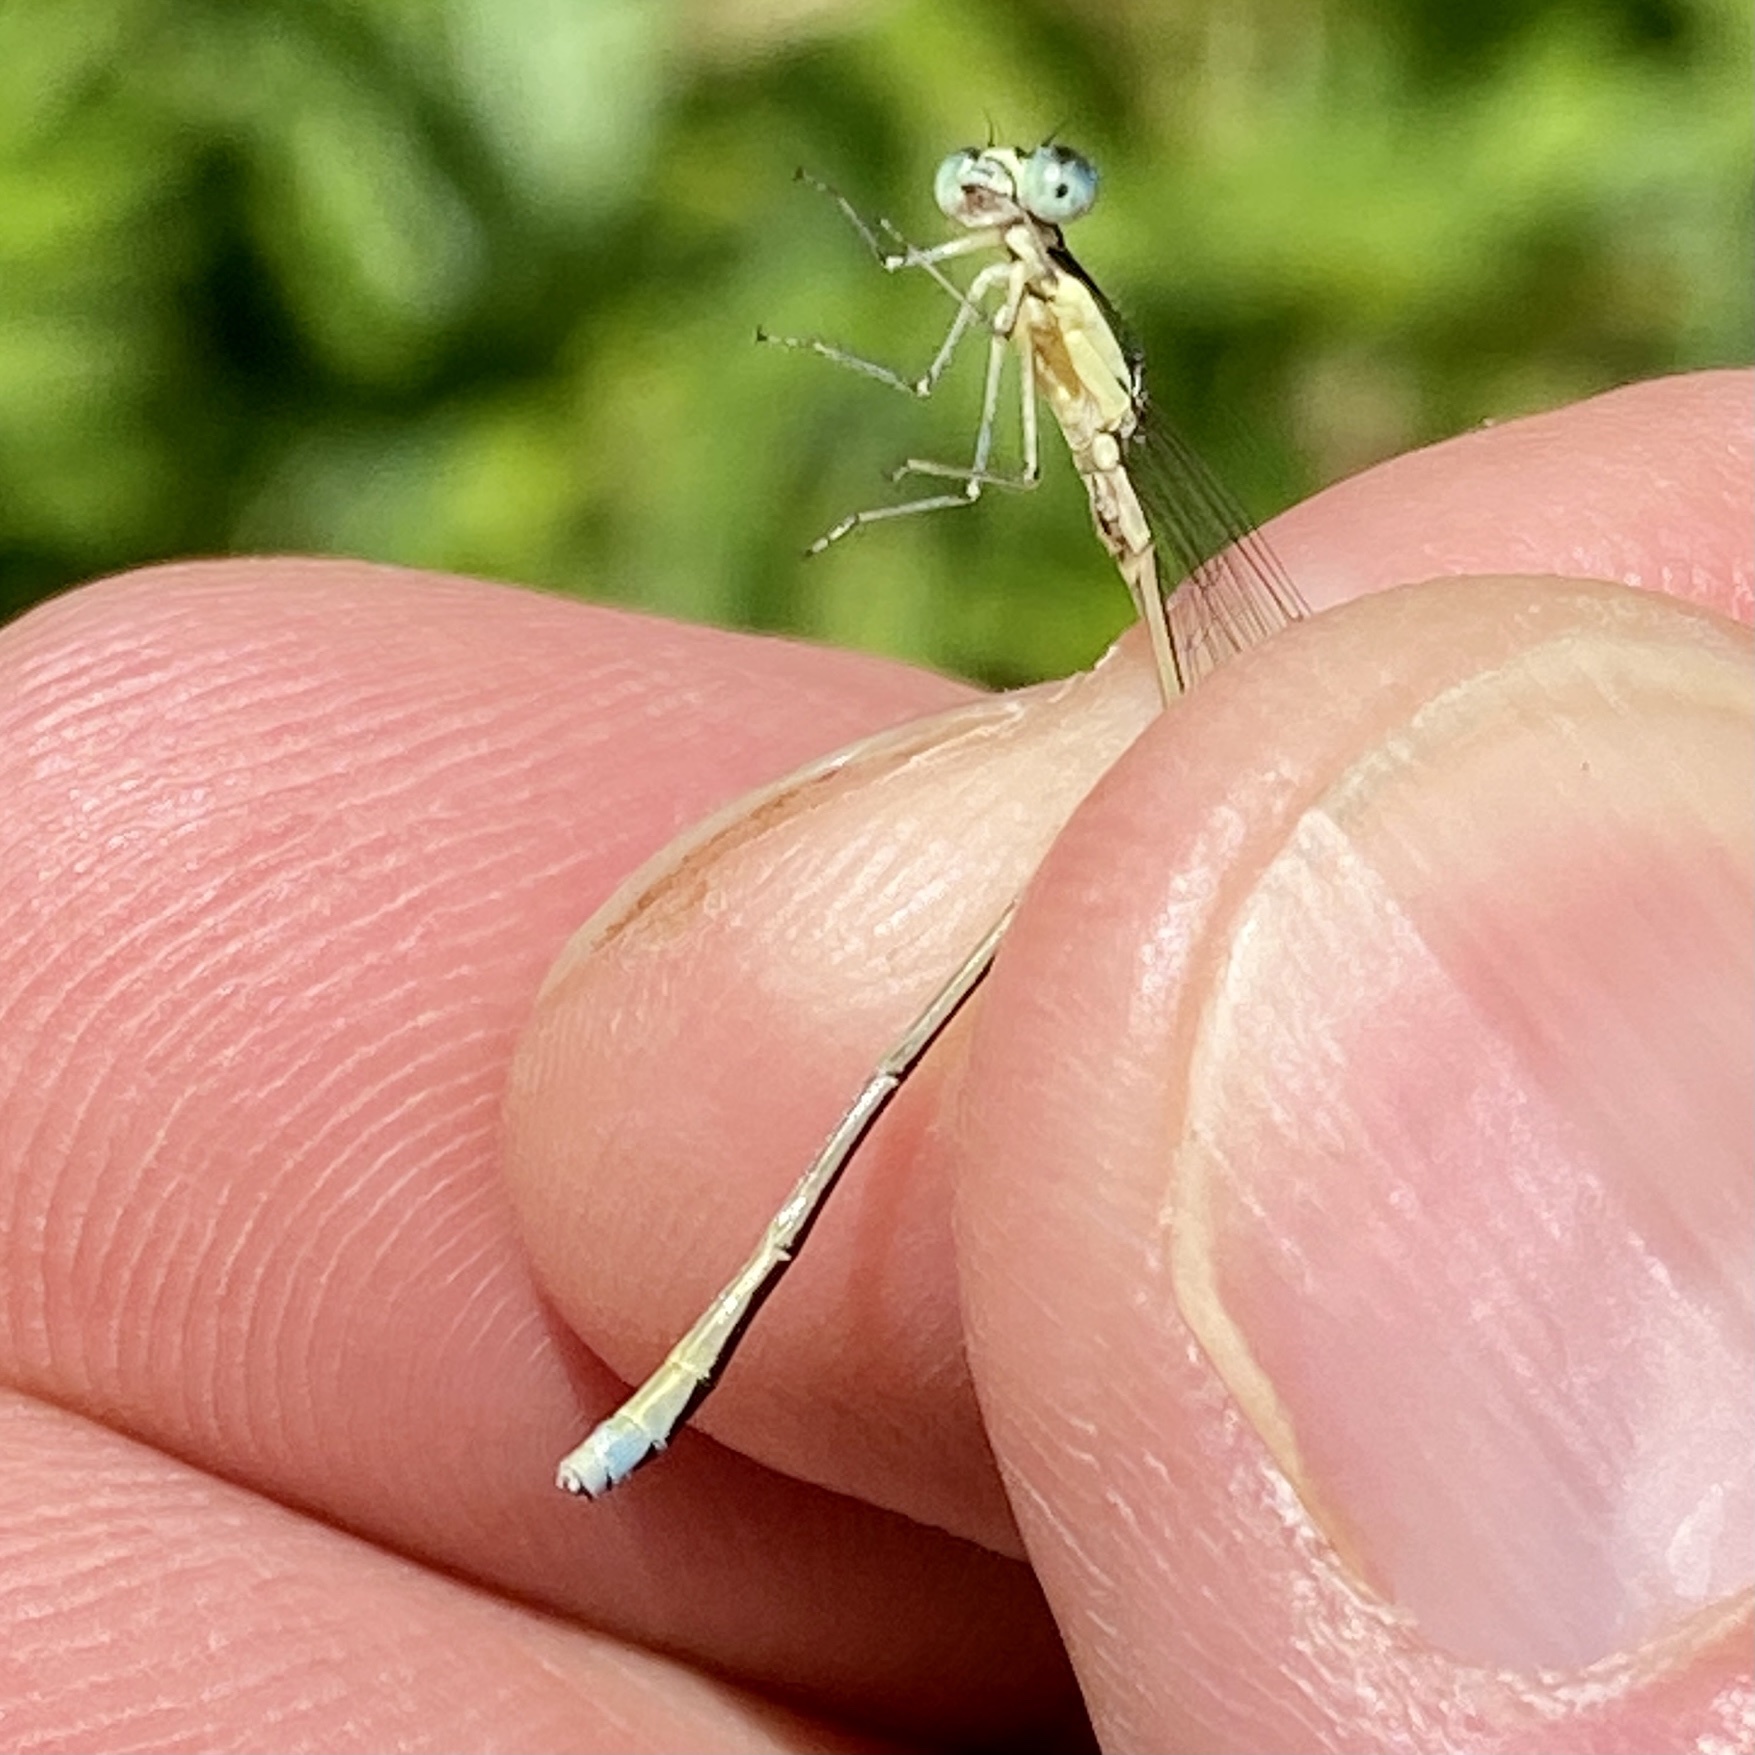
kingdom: Animalia
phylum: Arthropoda
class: Insecta
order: Odonata
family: Coenagrionidae
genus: Nehalennia
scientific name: Nehalennia irene
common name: Sedge sprite
